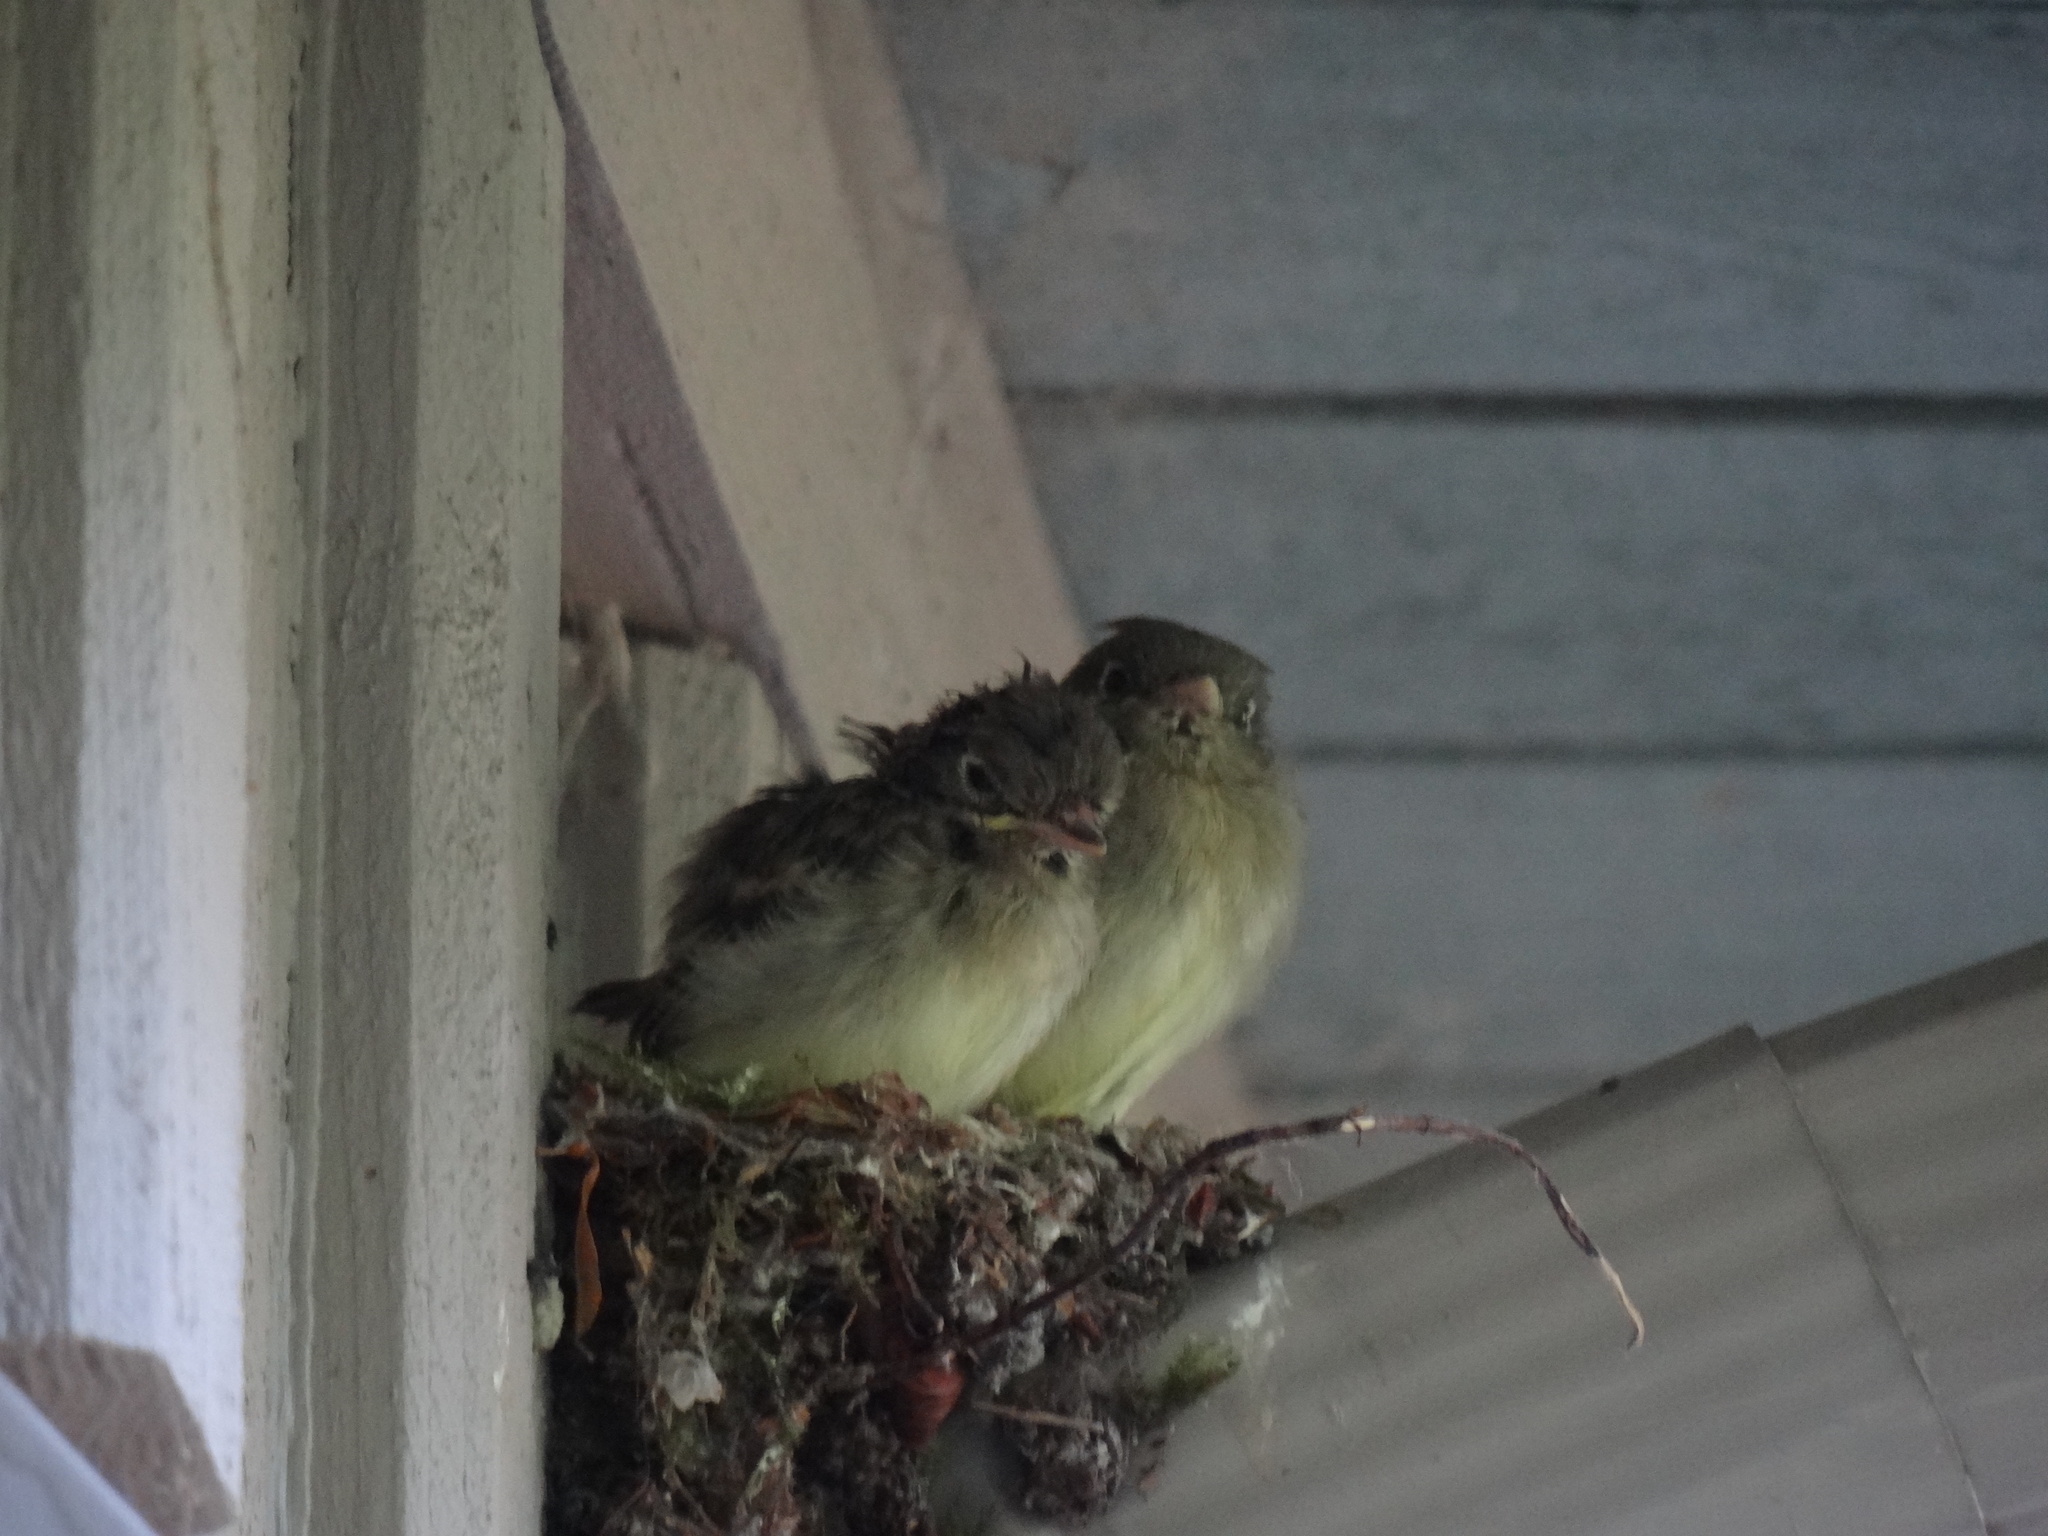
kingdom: Animalia
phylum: Chordata
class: Aves
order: Passeriformes
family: Tyrannidae
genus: Empidonax
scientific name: Empidonax difficilis
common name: Pacific-slope flycatcher
